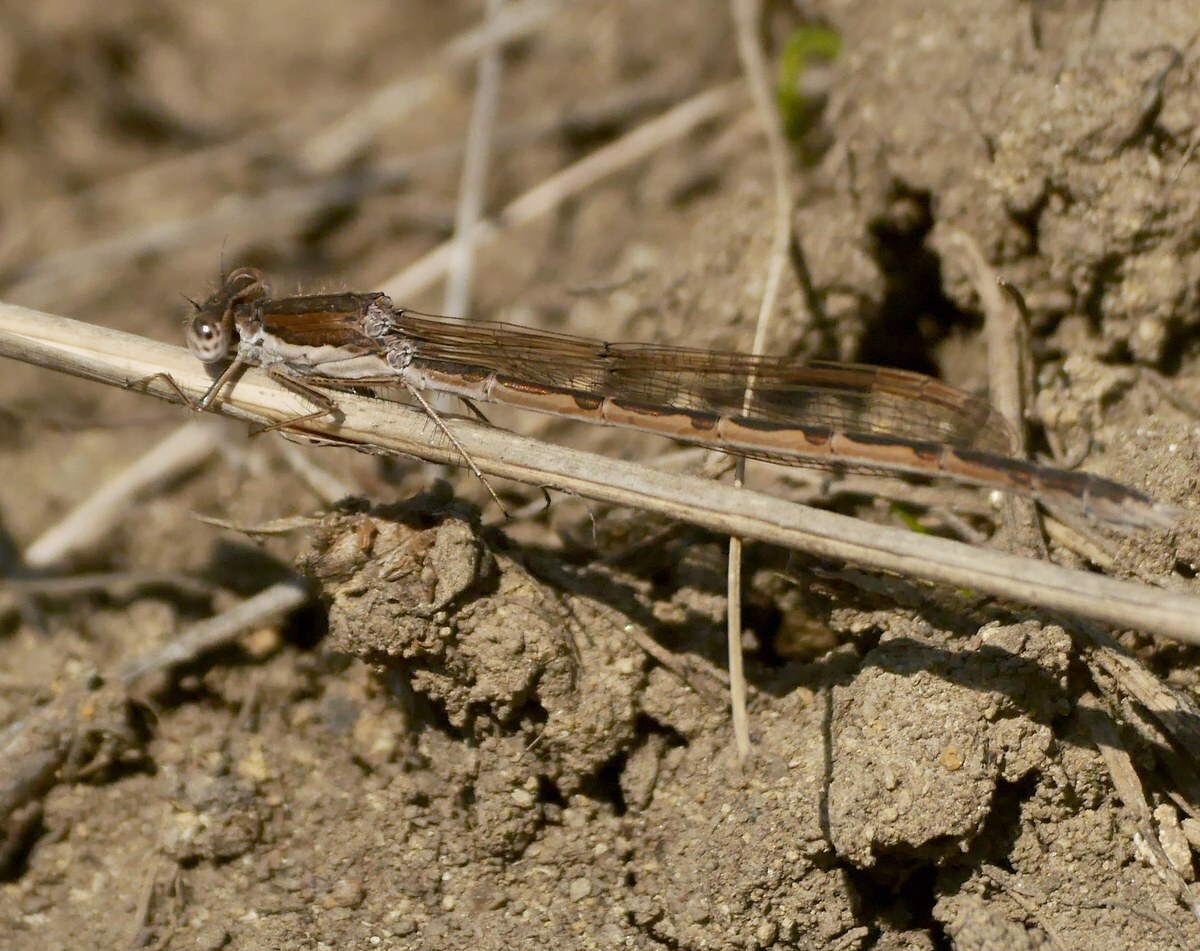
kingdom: Animalia
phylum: Arthropoda
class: Insecta
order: Odonata
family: Lestidae
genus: Sympecma
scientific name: Sympecma fusca
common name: Common winter damsel
